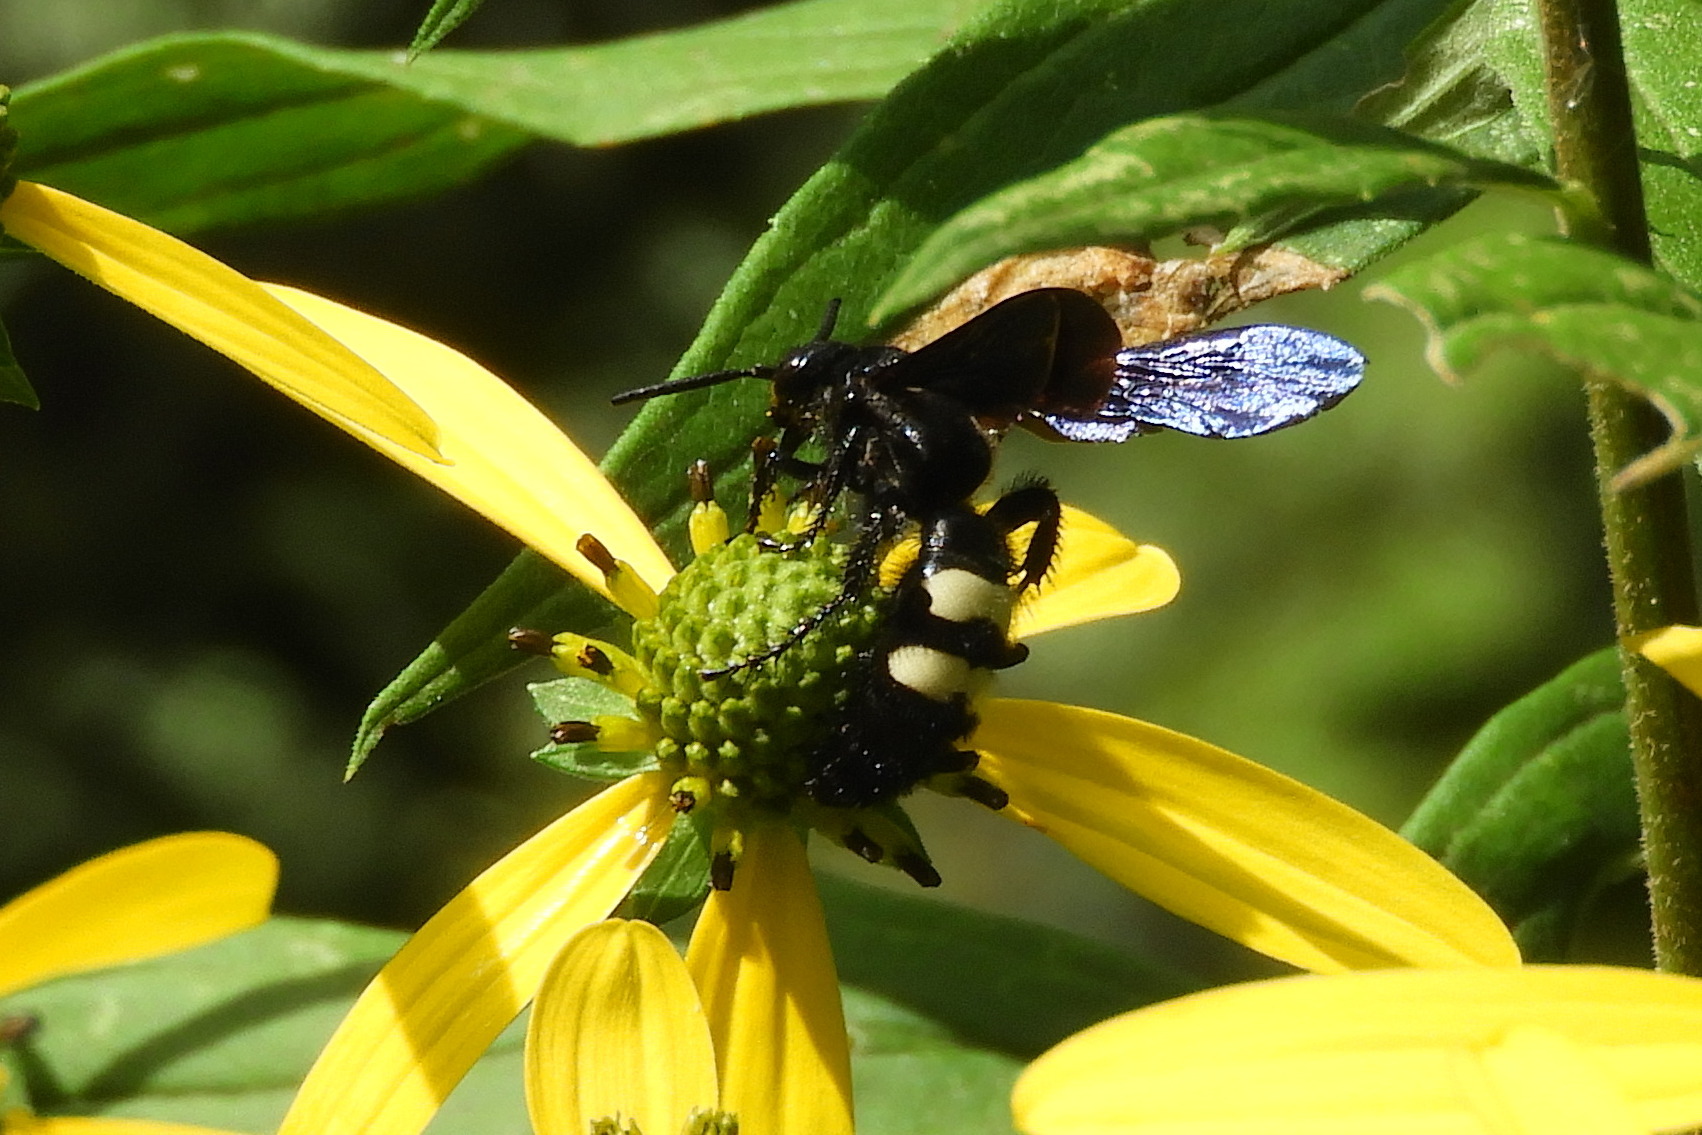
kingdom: Animalia
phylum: Arthropoda
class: Insecta
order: Hymenoptera
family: Scoliidae
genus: Scolia
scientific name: Scolia bicincta
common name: Double-banded scoliid wasp
